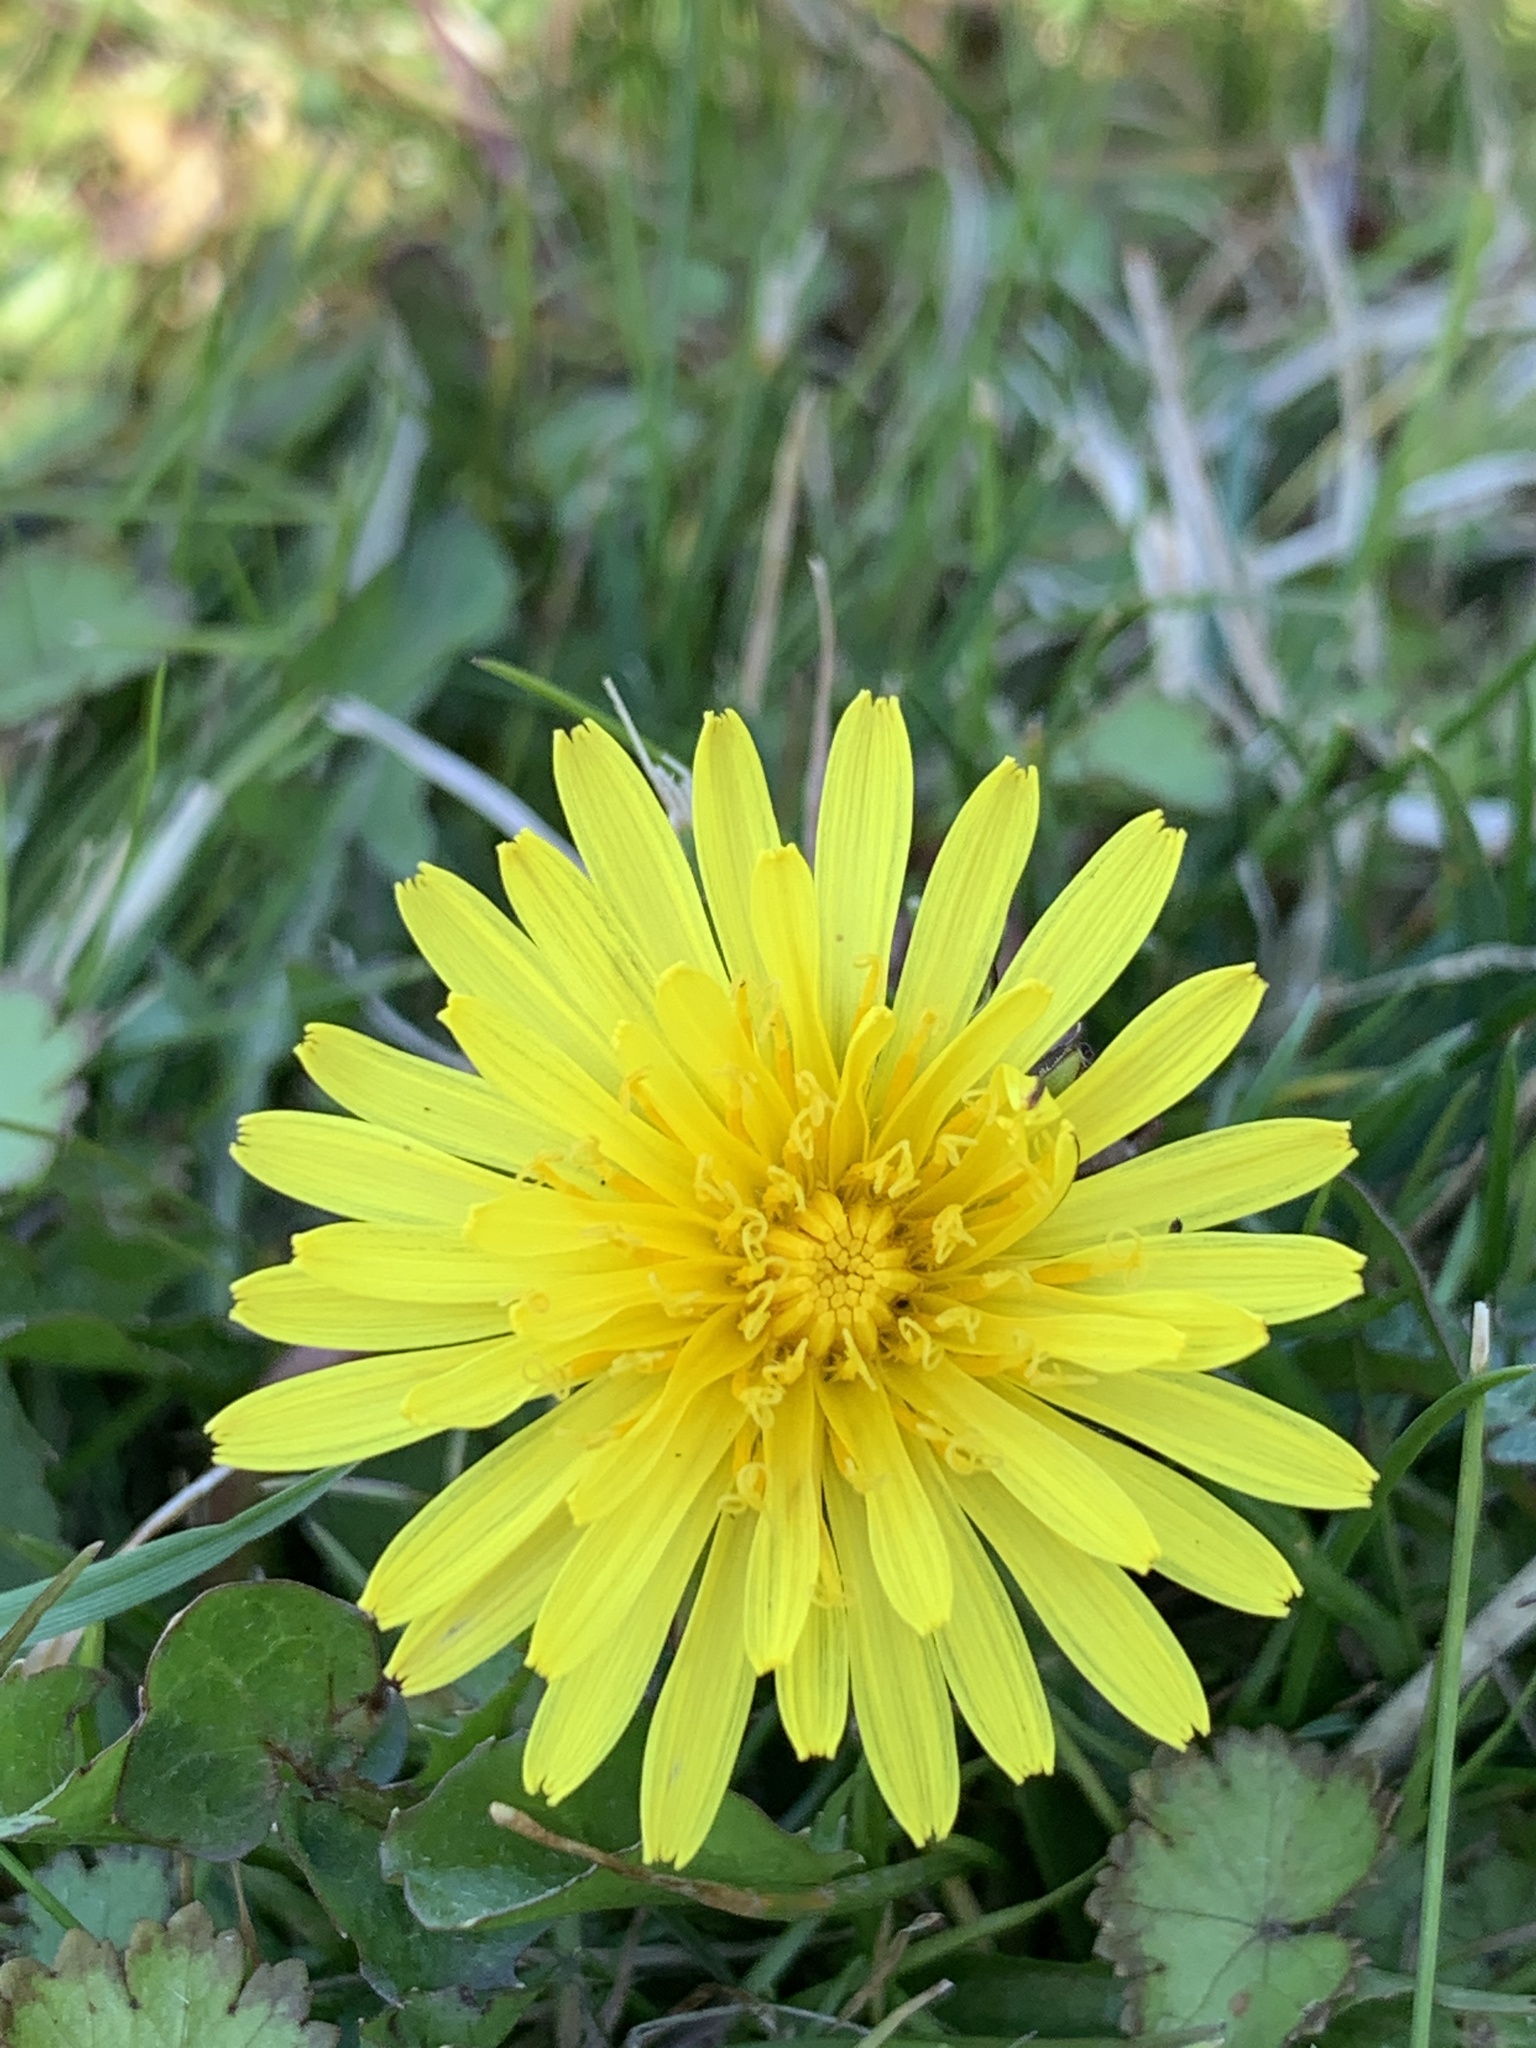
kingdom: Plantae
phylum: Tracheophyta
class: Magnoliopsida
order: Asterales
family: Asteraceae
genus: Taraxacum
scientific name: Taraxacum officinale
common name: Common dandelion
